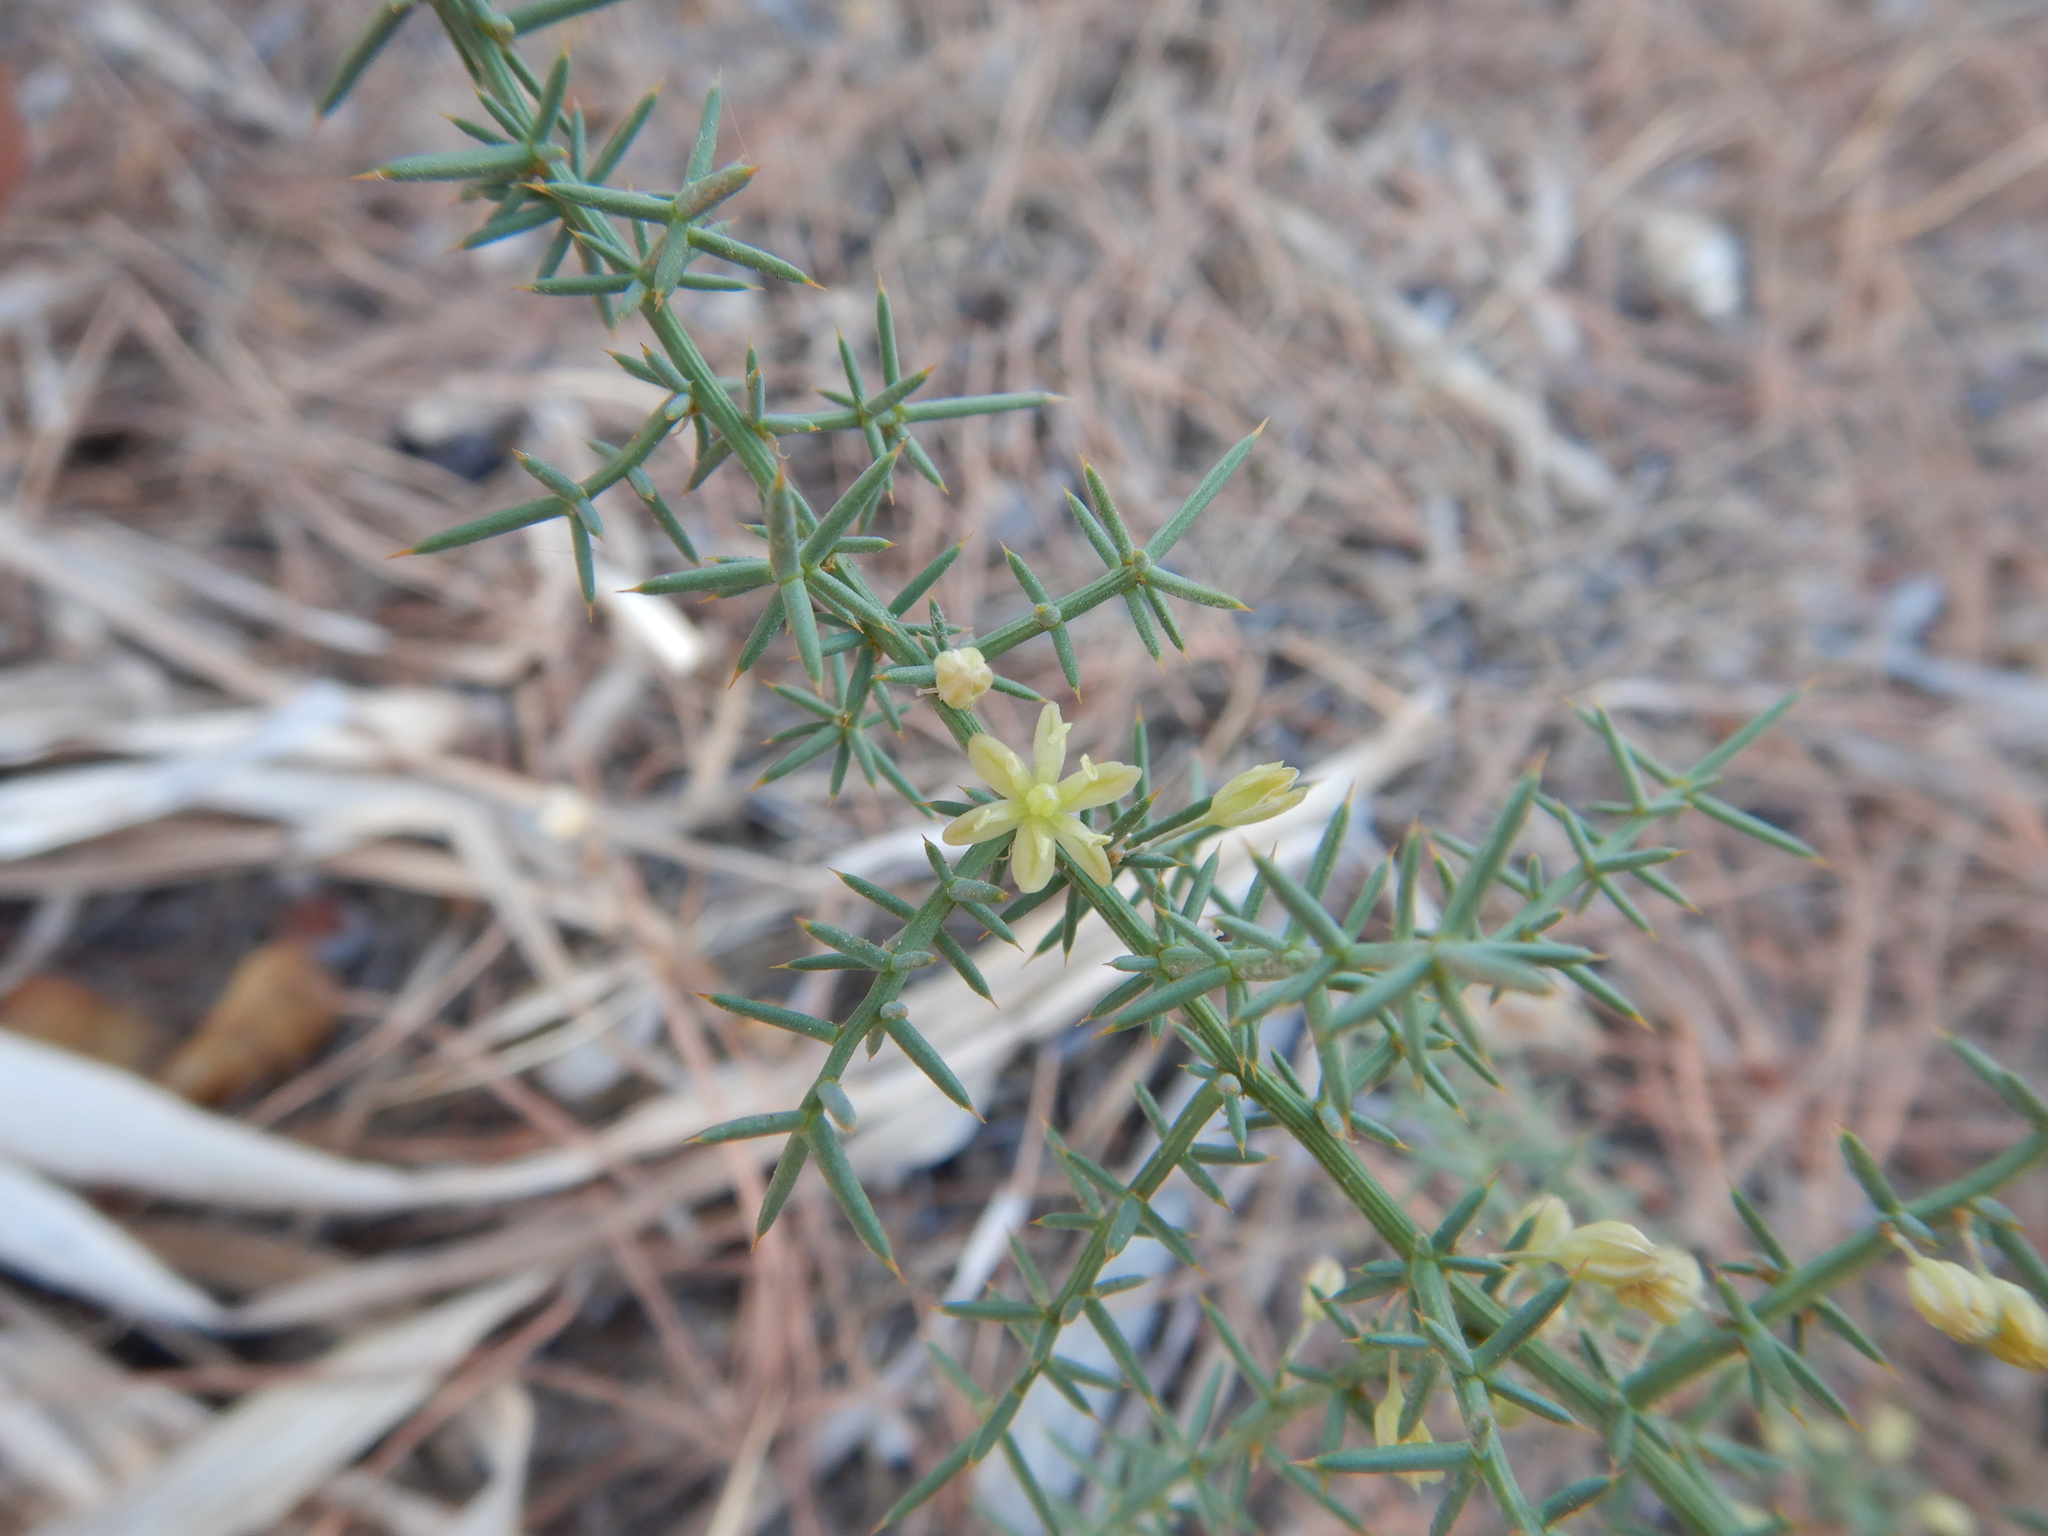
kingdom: Plantae
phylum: Tracheophyta
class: Liliopsida
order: Asparagales
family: Asparagaceae
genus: Asparagus
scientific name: Asparagus aphyllus
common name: Mediterranean asparagus
